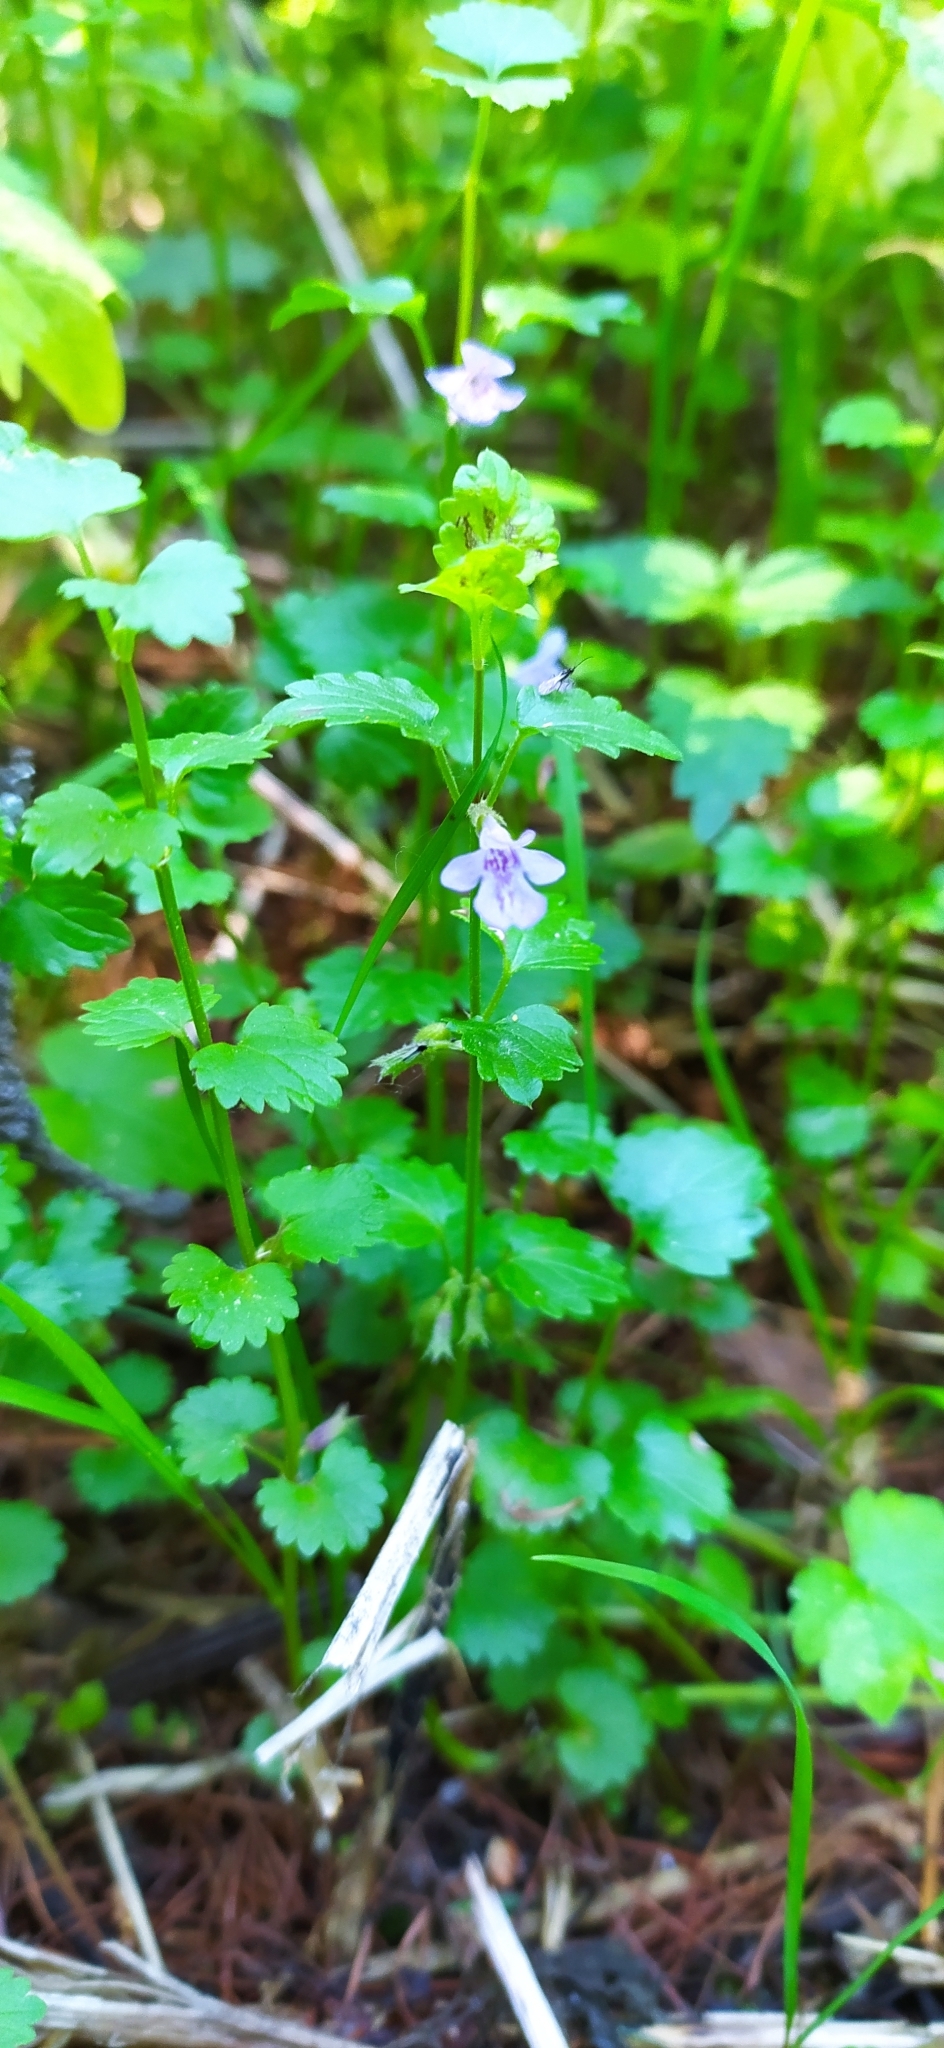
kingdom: Plantae
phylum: Tracheophyta
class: Magnoliopsida
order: Lamiales
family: Lamiaceae
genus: Glechoma
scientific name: Glechoma hederacea
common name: Ground ivy
